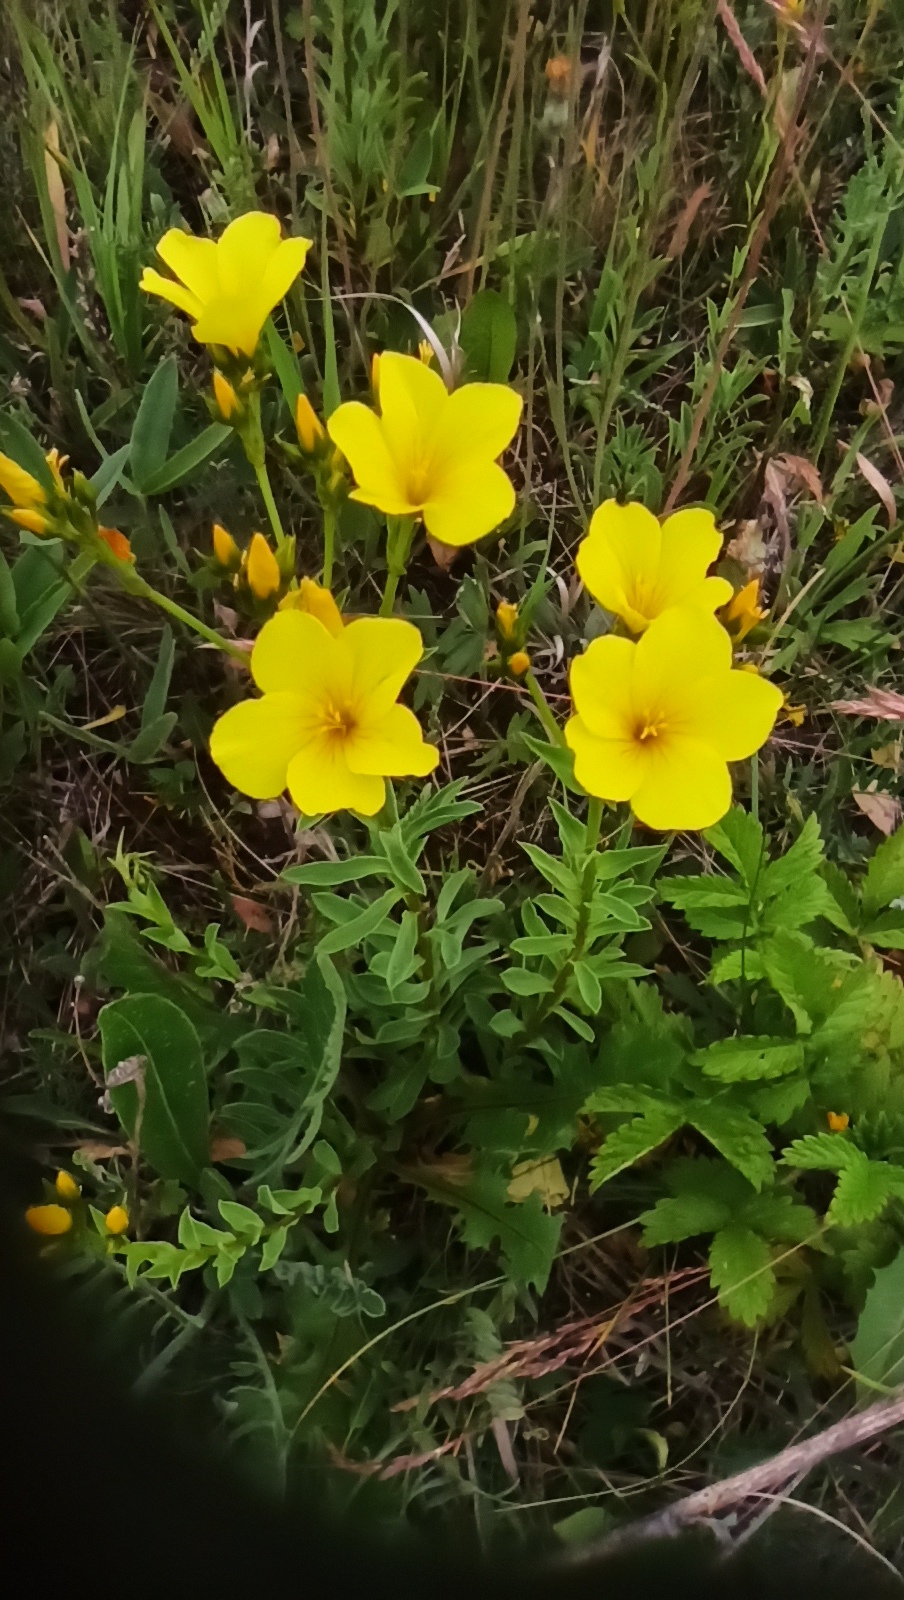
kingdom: Plantae
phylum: Tracheophyta
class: Magnoliopsida
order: Malpighiales
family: Linaceae
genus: Linum
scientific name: Linum flavum
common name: Yellow flax
